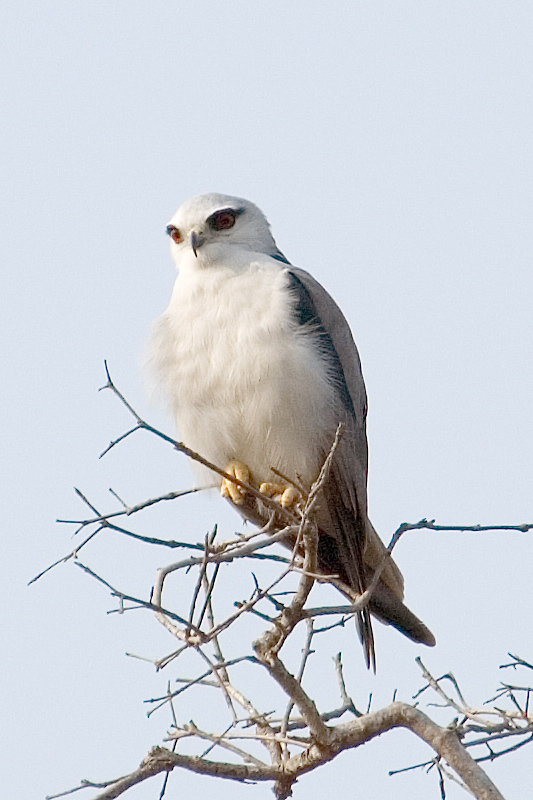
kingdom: Animalia
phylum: Chordata
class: Aves
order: Accipitriformes
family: Accipitridae
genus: Elanus
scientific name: Elanus caeruleus
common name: Black-winged kite
